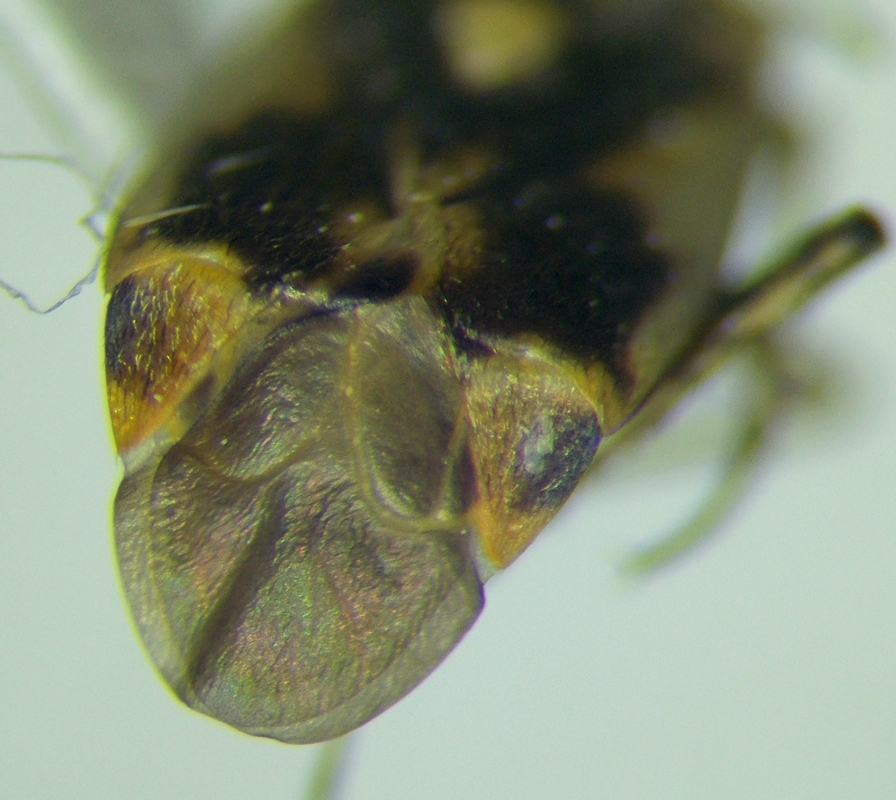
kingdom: Animalia
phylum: Arthropoda
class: Insecta
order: Hemiptera
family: Miridae
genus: Polymerus
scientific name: Polymerus cognatus
